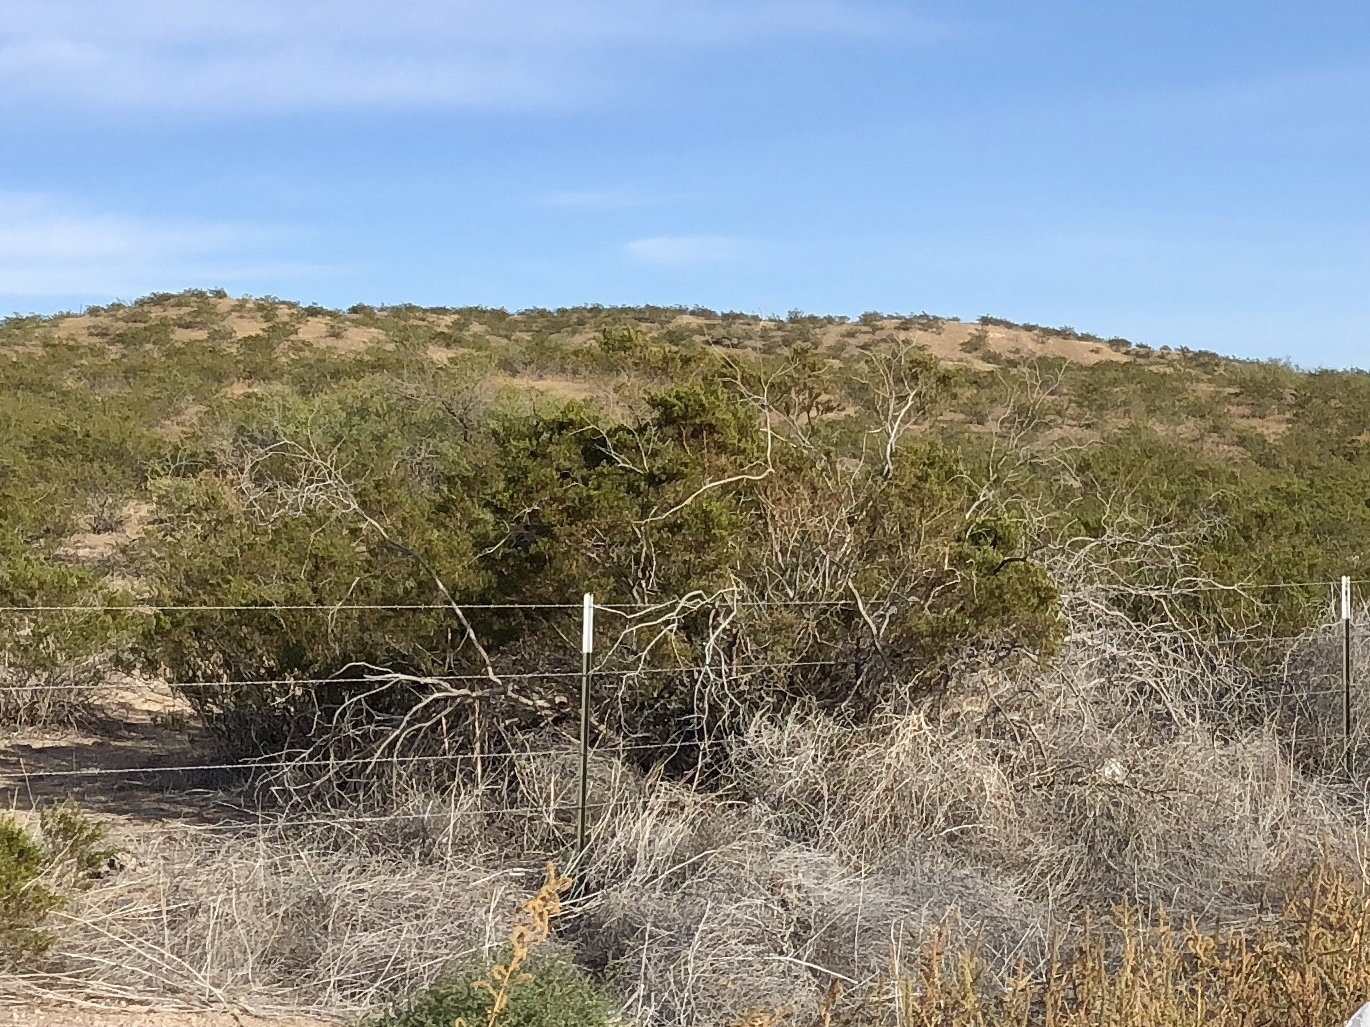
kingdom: Plantae
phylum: Tracheophyta
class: Magnoliopsida
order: Zygophyllales
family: Zygophyllaceae
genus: Larrea
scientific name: Larrea tridentata
